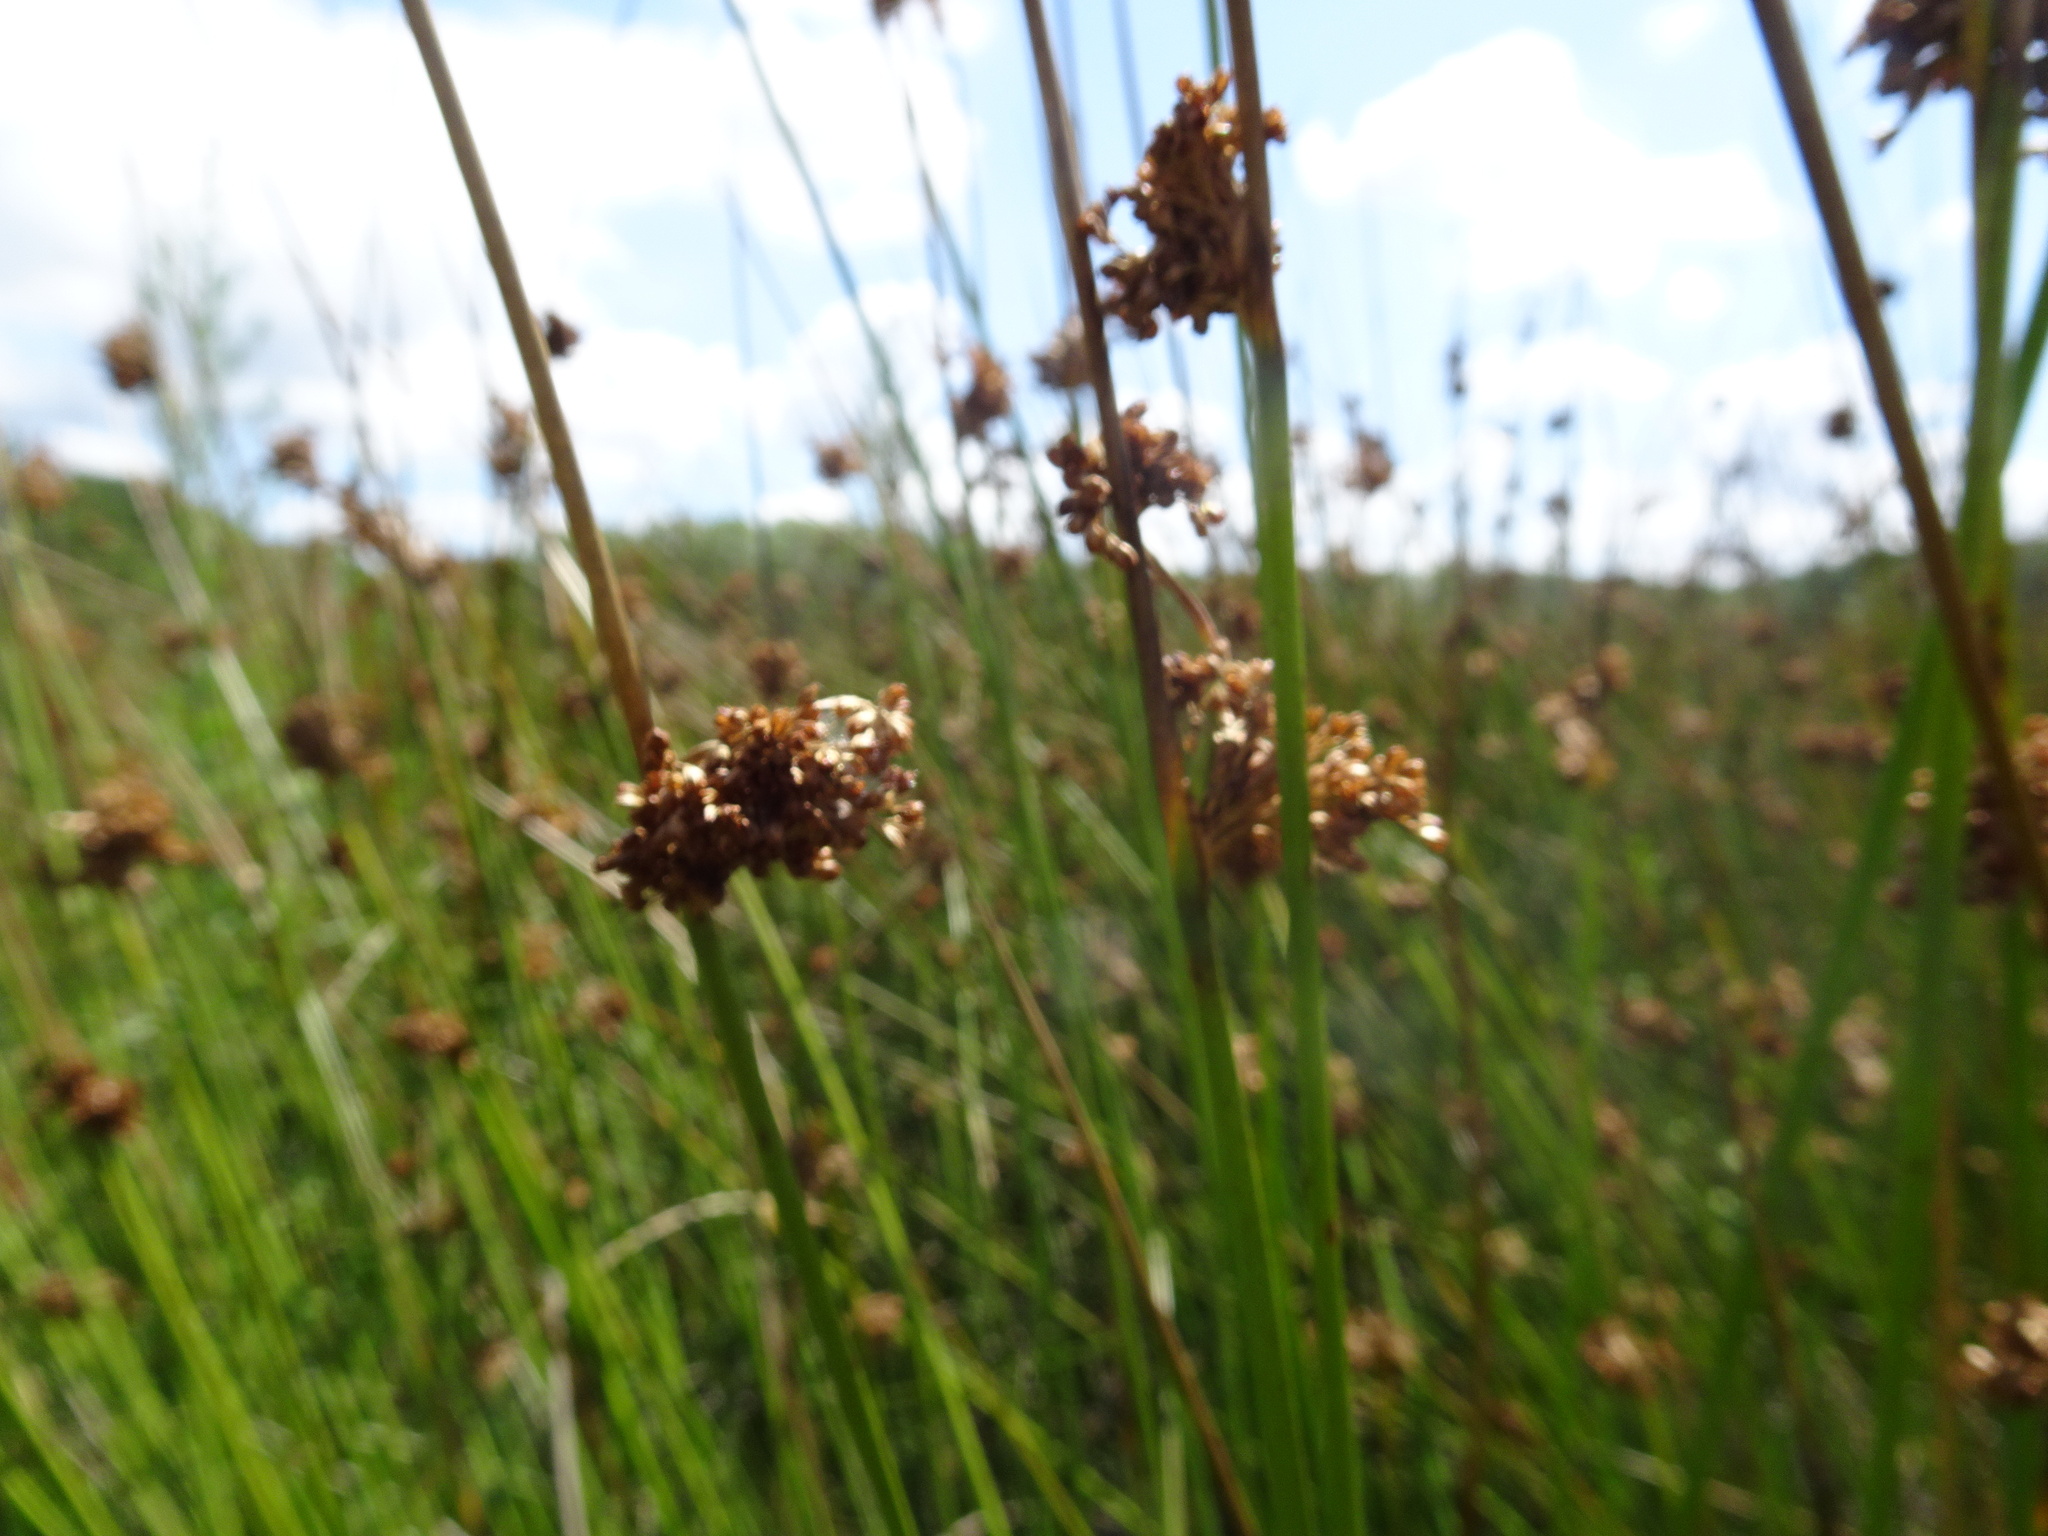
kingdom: Plantae
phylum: Tracheophyta
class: Liliopsida
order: Poales
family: Juncaceae
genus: Juncus
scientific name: Juncus effusus
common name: Soft rush
